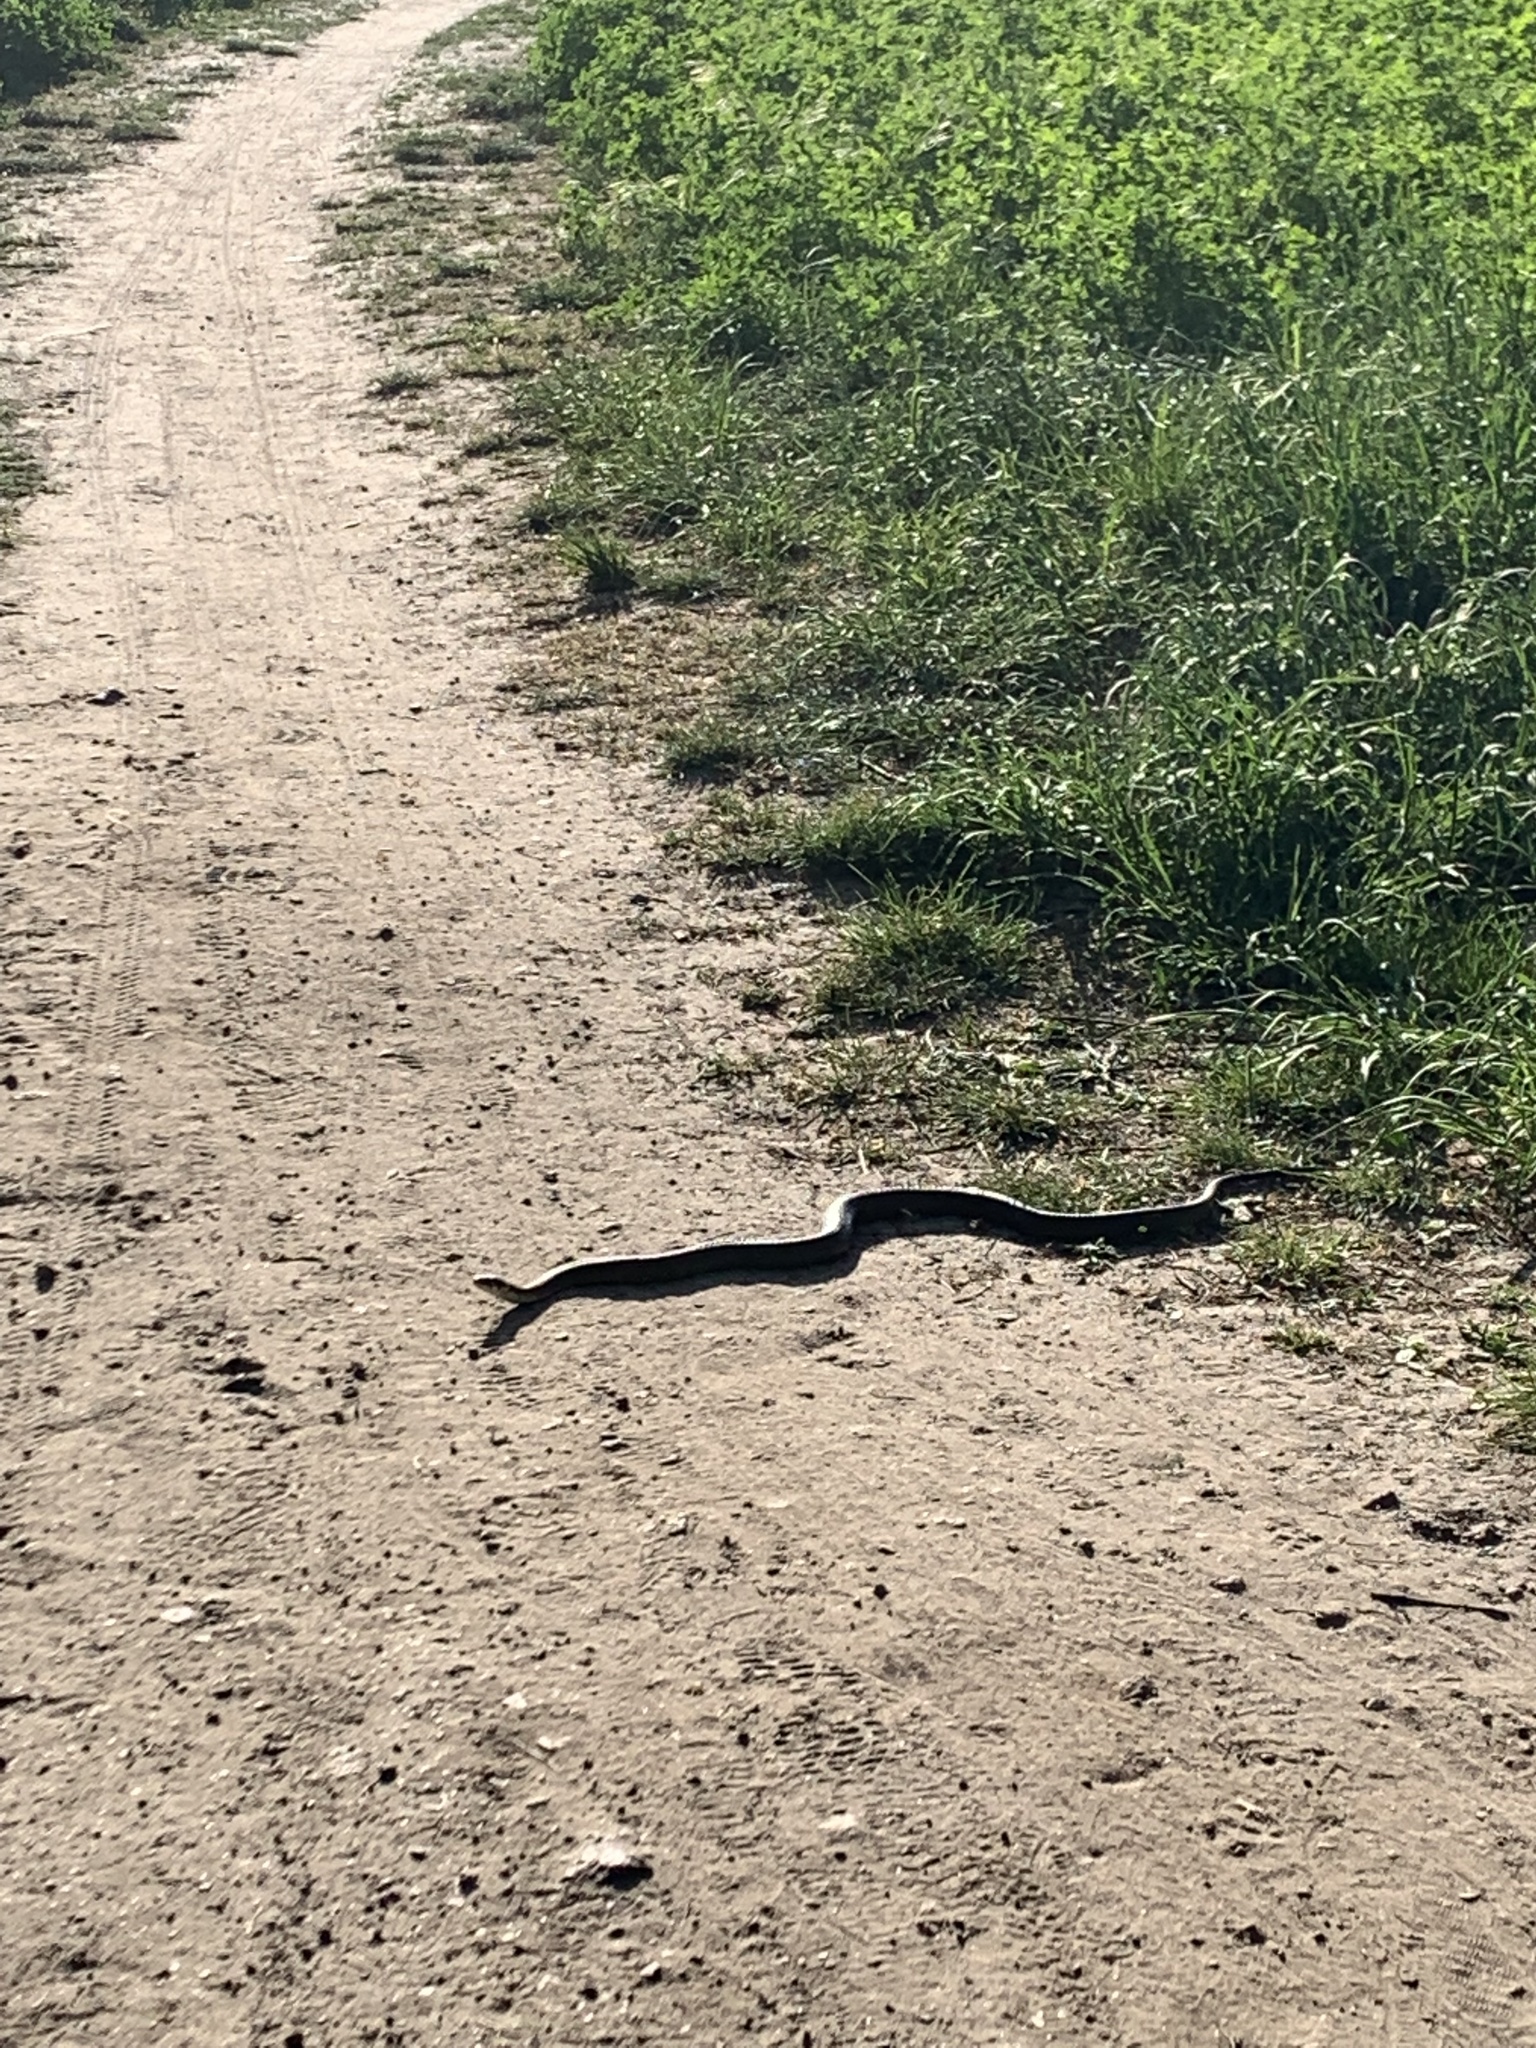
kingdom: Animalia
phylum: Chordata
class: Squamata
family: Colubridae
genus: Natrix
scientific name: Natrix natrix
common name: Grass snake
